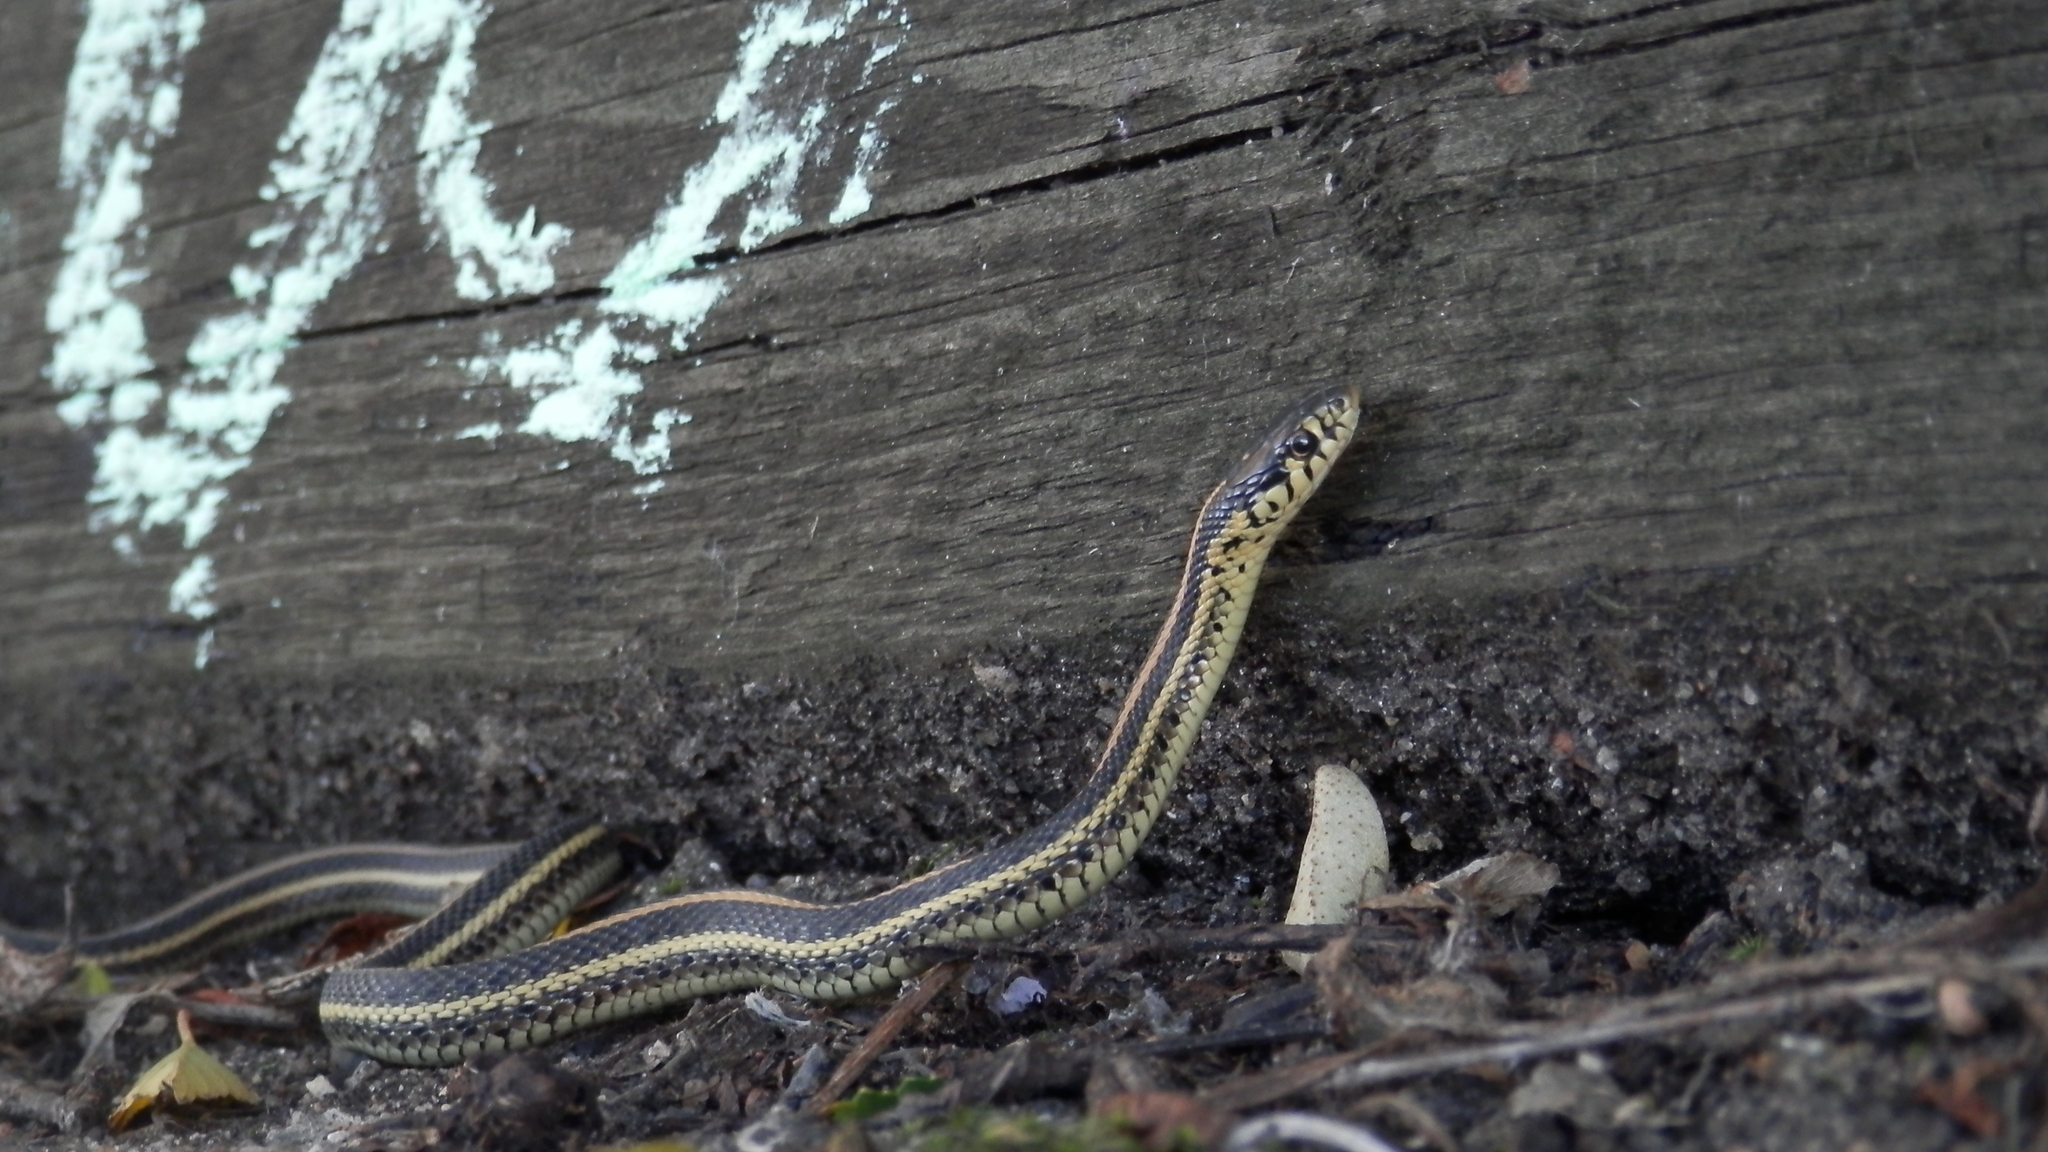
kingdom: Animalia
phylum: Chordata
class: Squamata
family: Colubridae
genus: Thamnophis
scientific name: Thamnophis radix
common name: Plains garter snake
